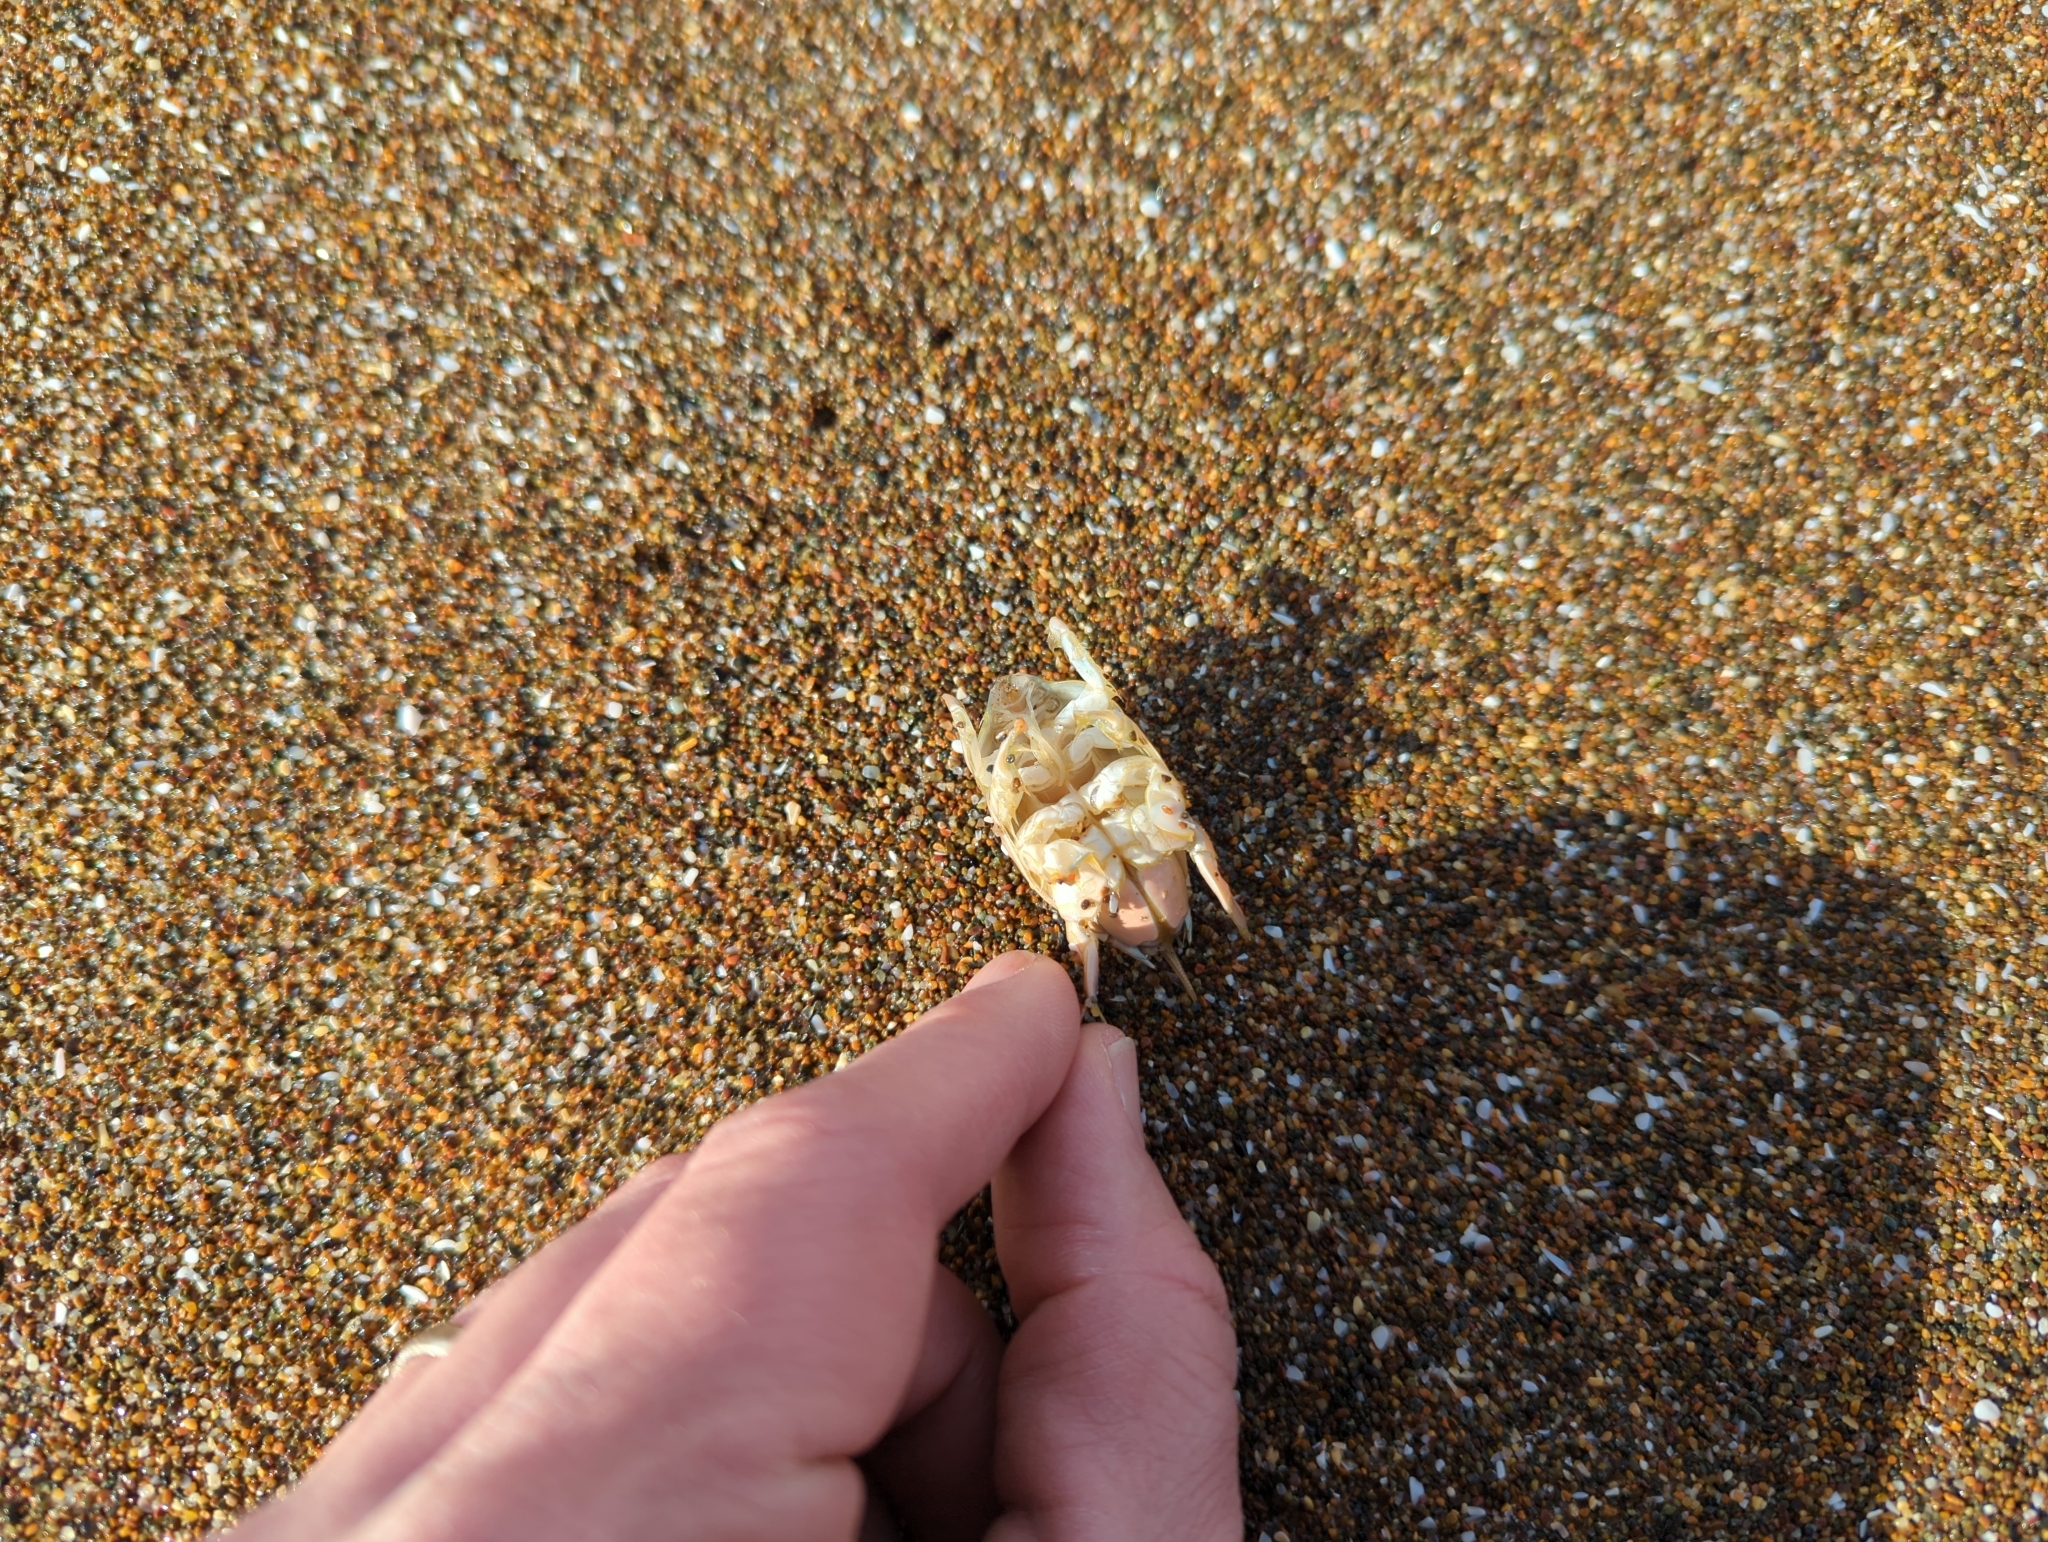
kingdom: Animalia
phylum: Arthropoda
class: Malacostraca
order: Decapoda
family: Hippidae
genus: Emerita
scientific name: Emerita analoga
